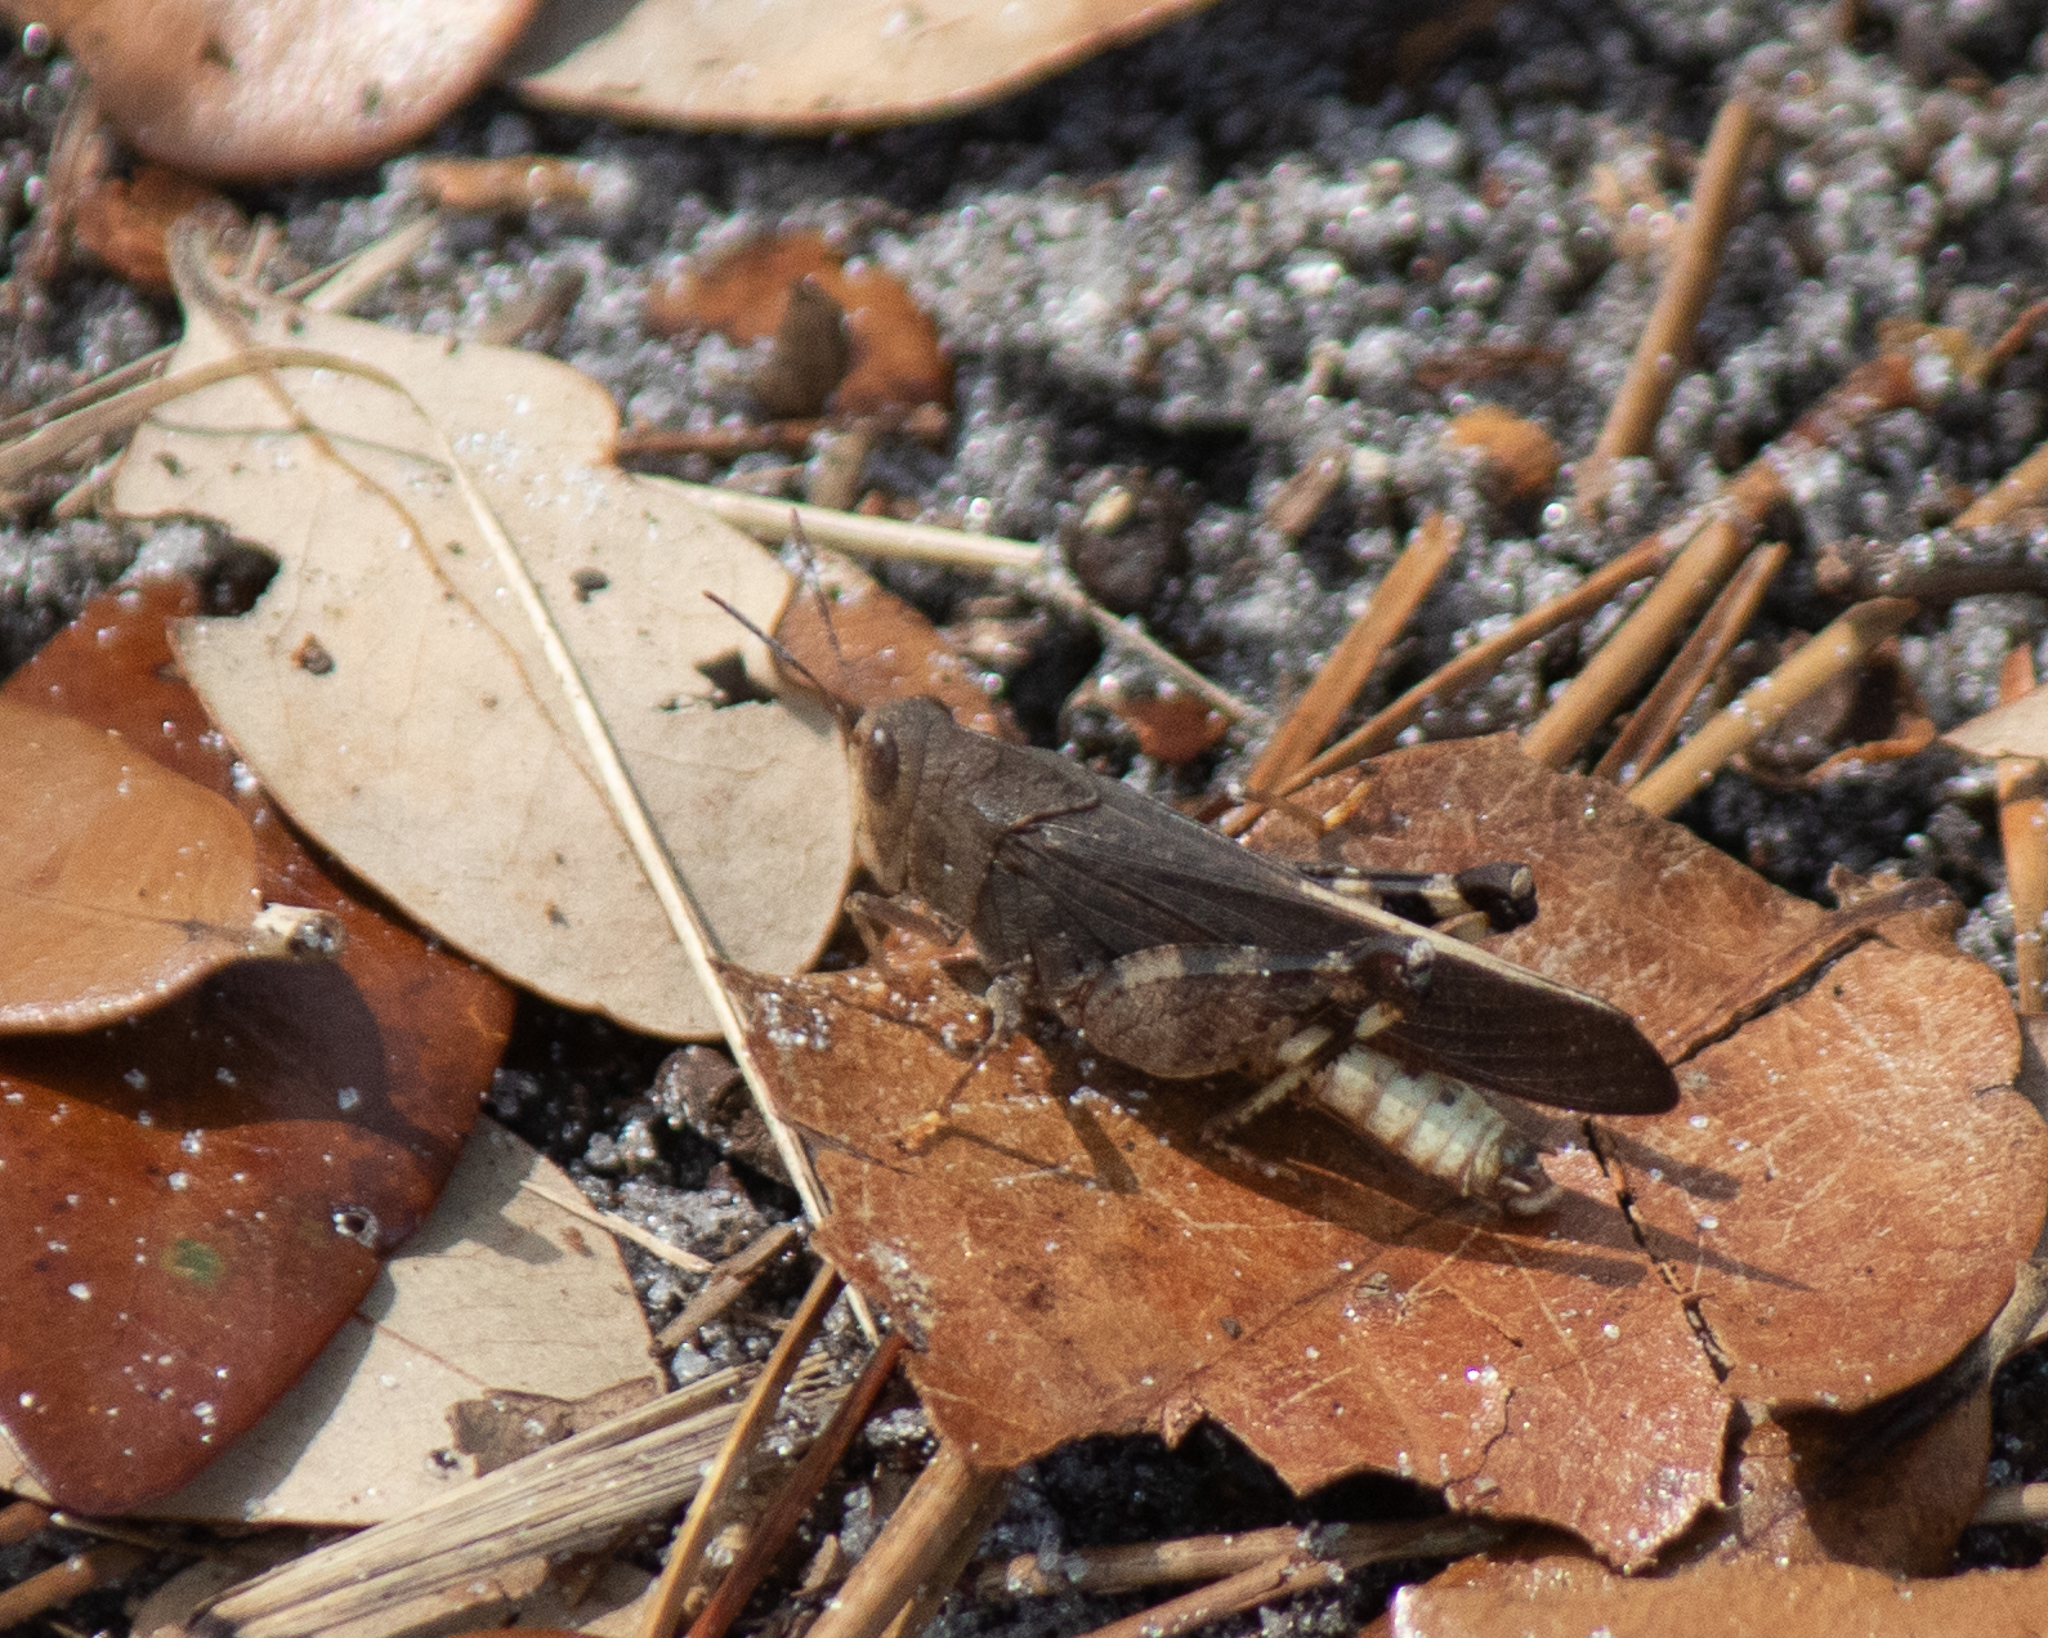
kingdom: Animalia
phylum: Arthropoda
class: Insecta
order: Orthoptera
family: Acrididae
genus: Arphia
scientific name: Arphia granulata
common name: Southern yellow-winged grasshopper
